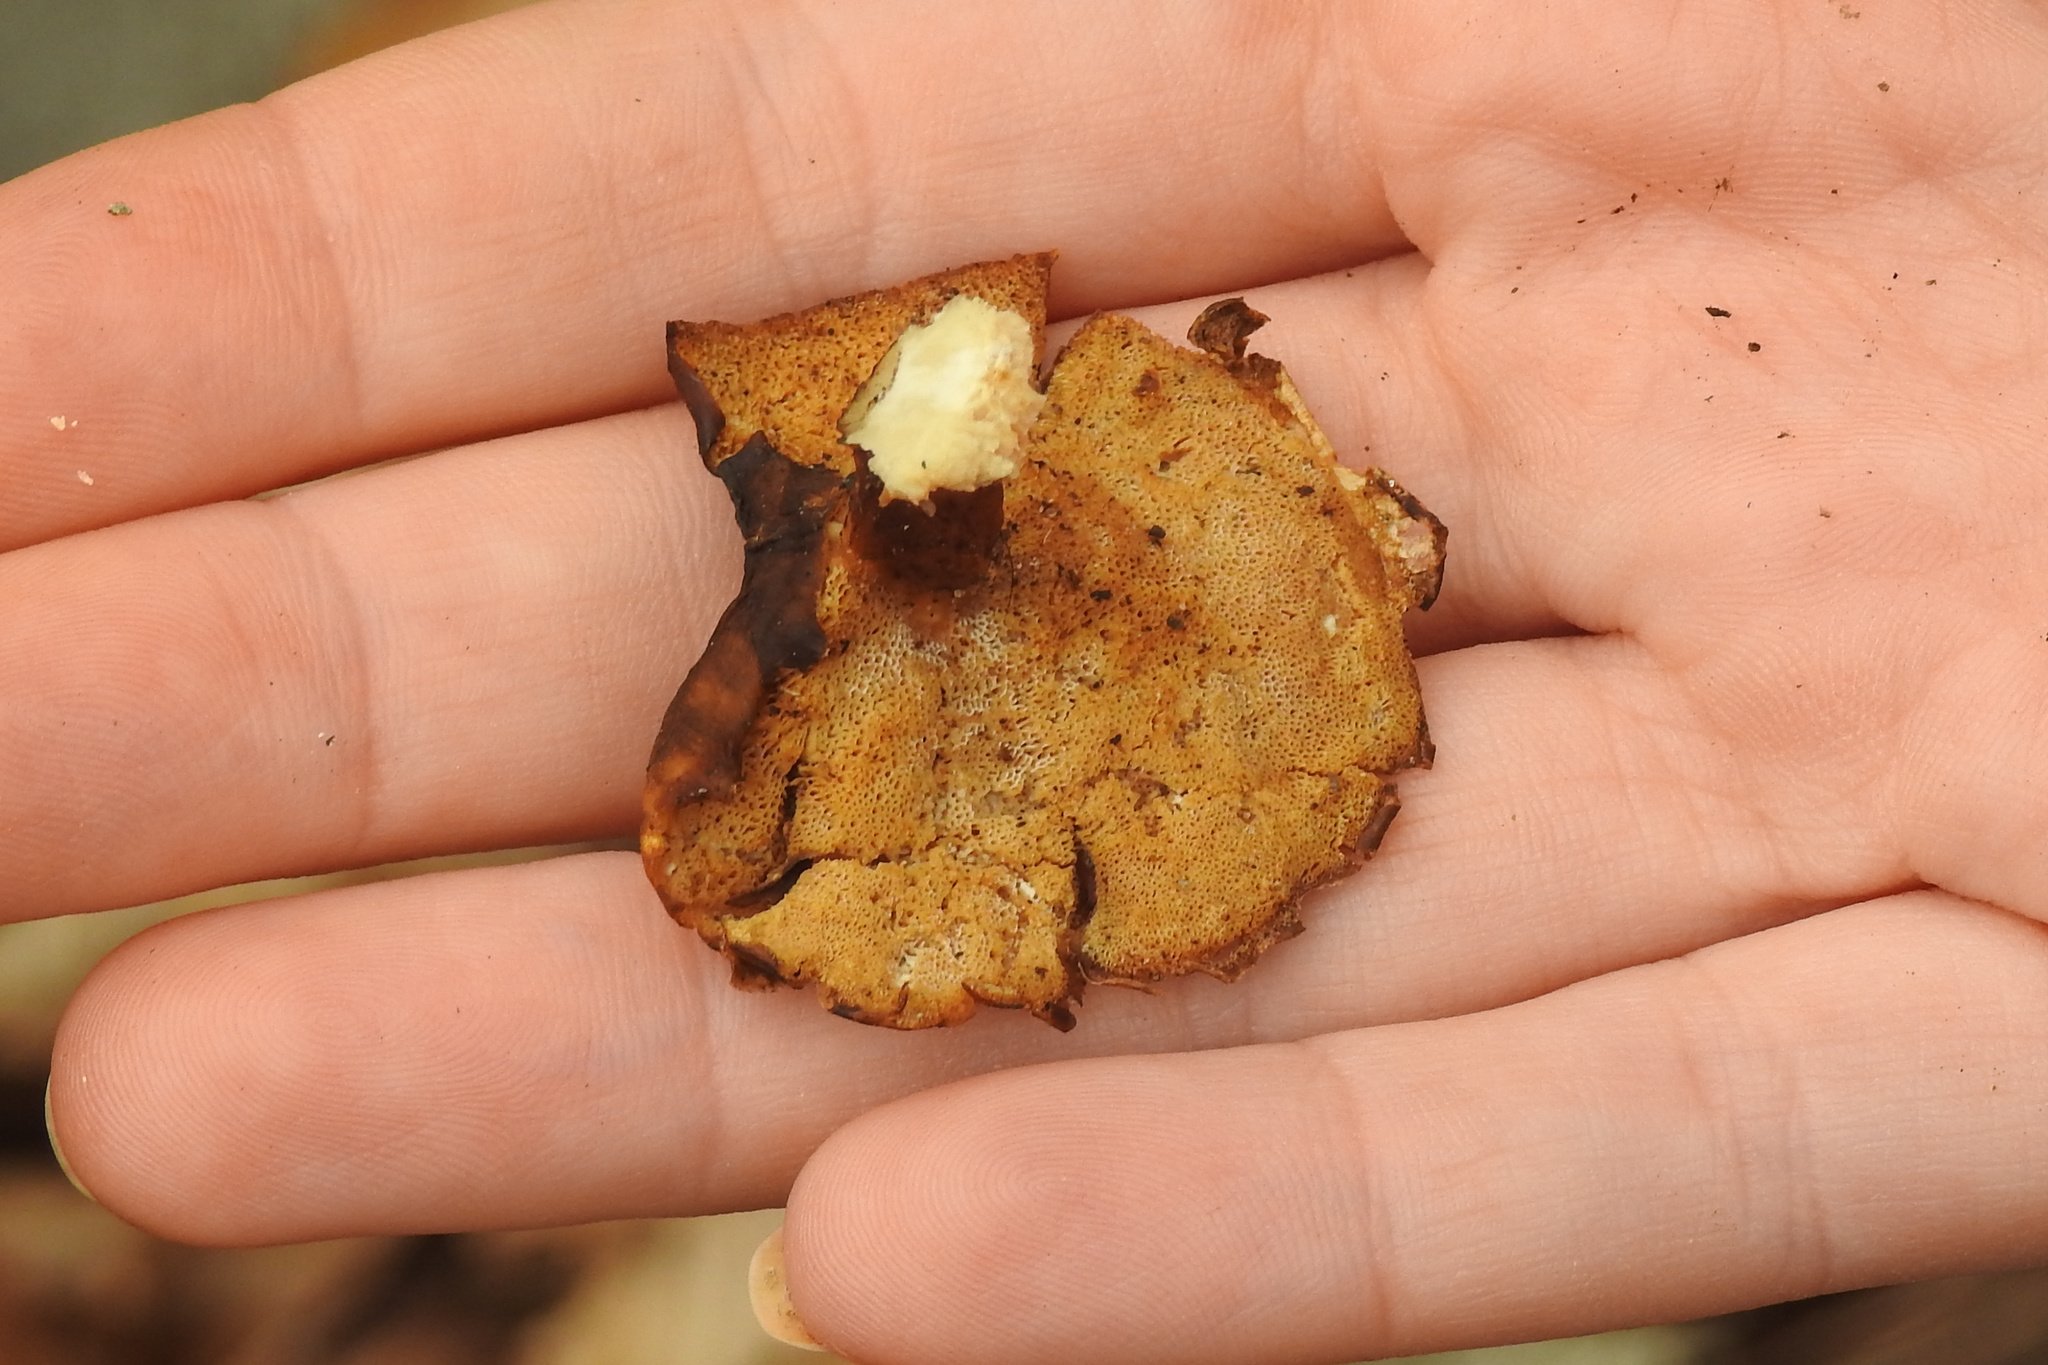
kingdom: Fungi
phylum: Basidiomycota
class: Agaricomycetes
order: Polyporales
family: Polyporaceae
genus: Picipes
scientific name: Picipes badius
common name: Bay polypore
